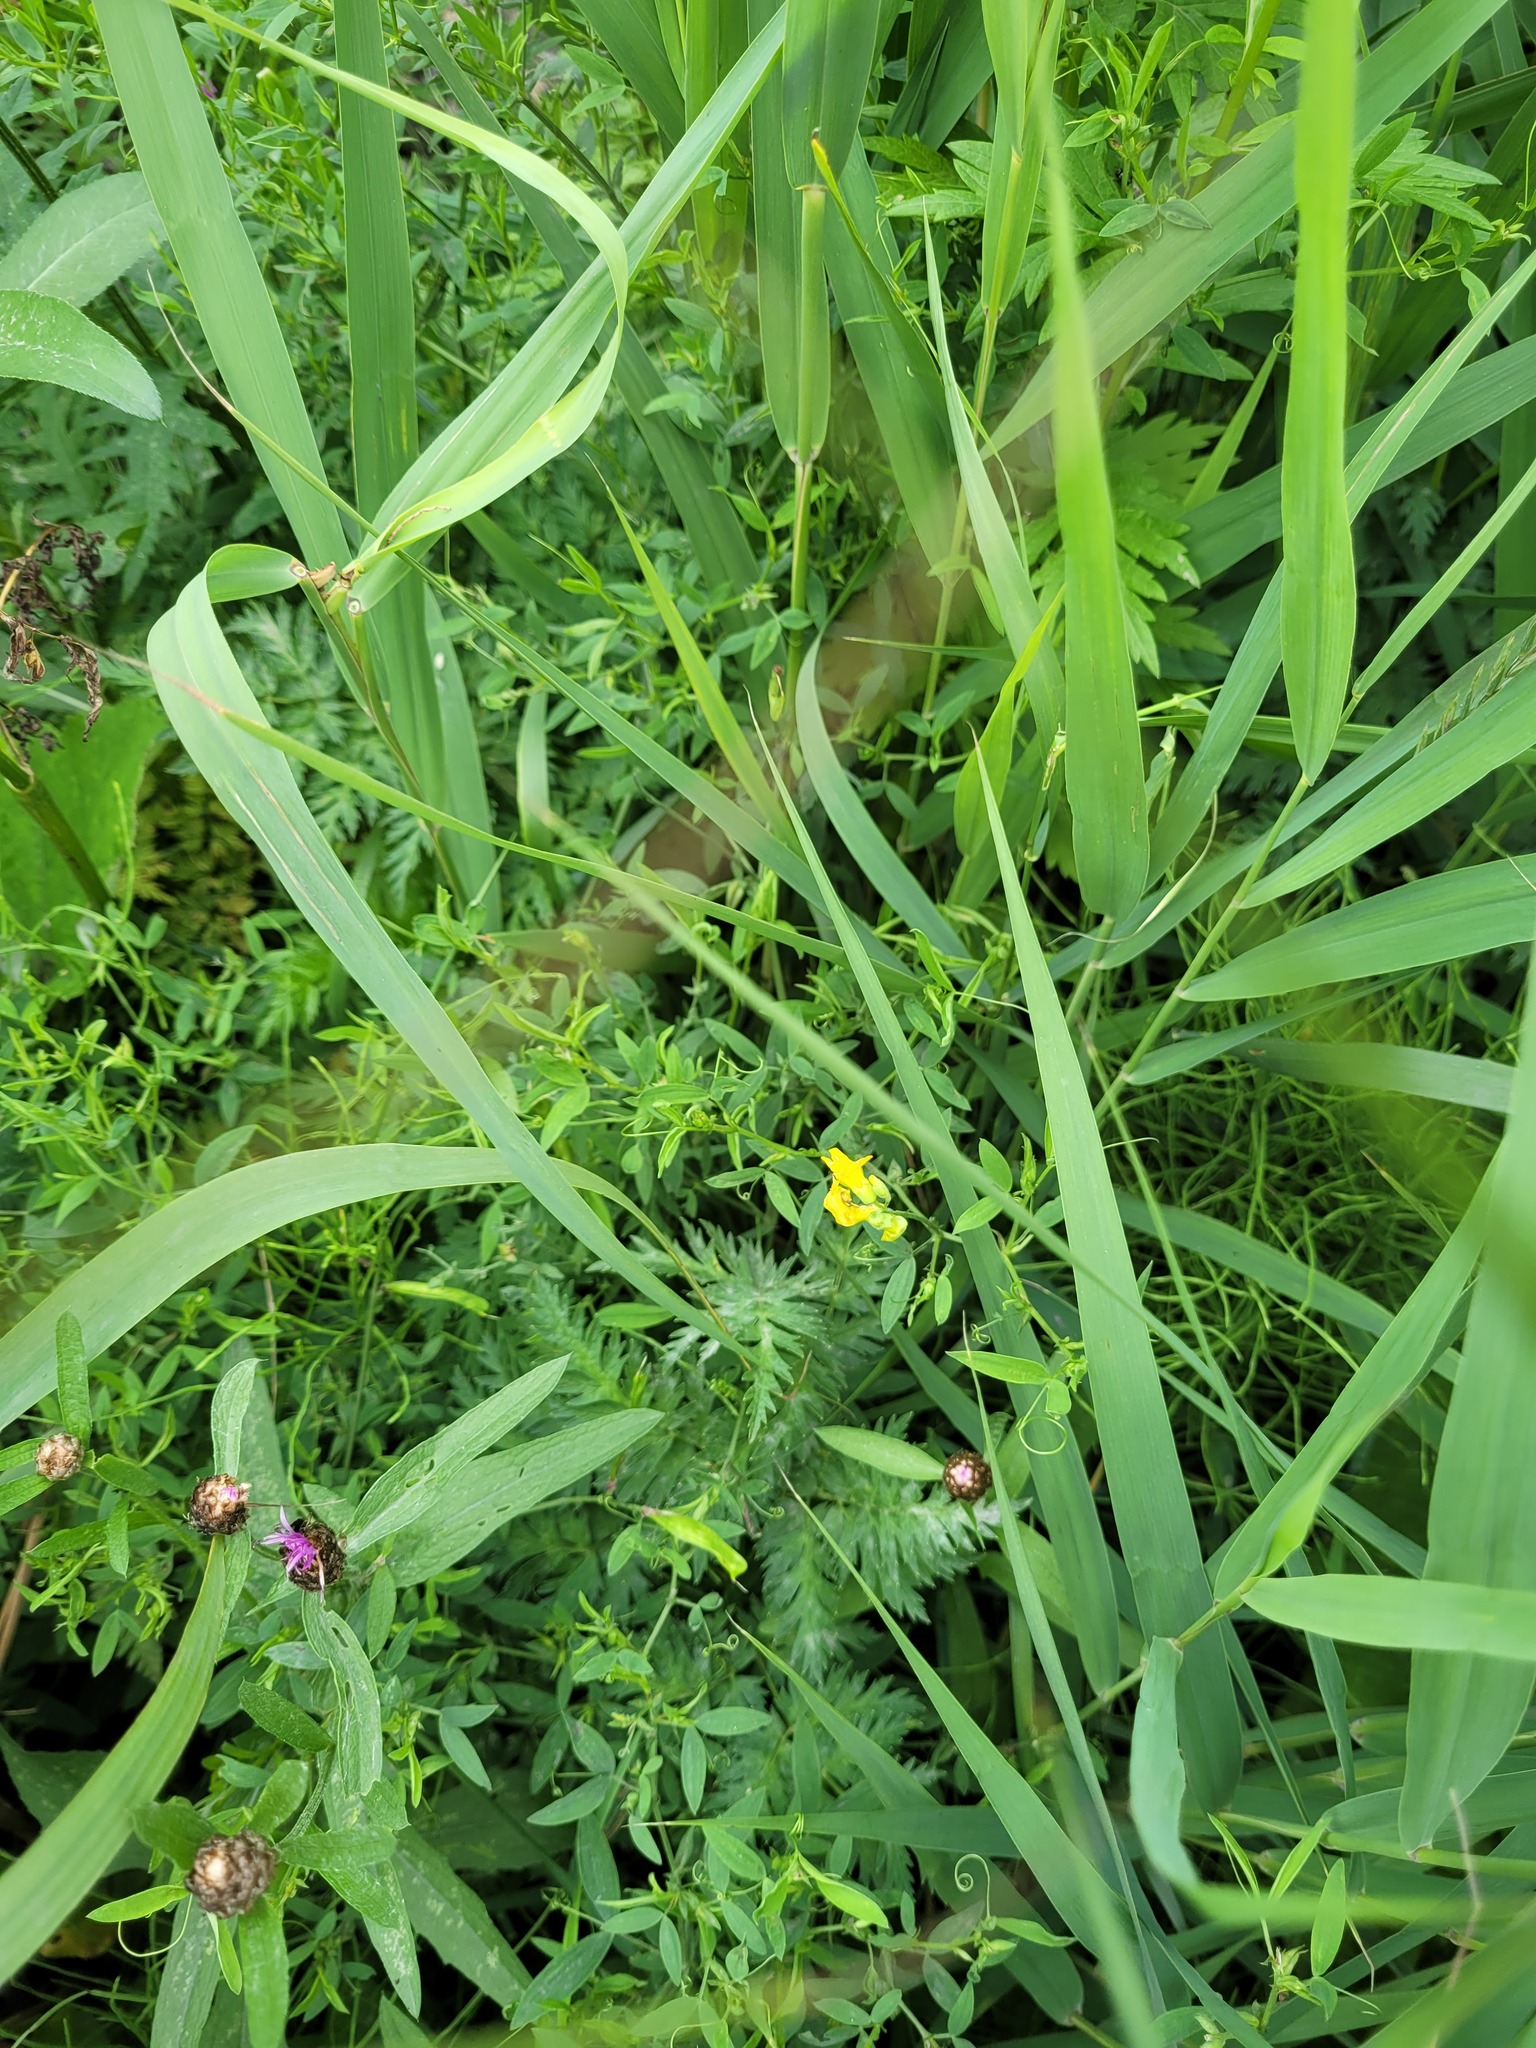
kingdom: Plantae
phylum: Tracheophyta
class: Magnoliopsida
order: Fabales
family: Fabaceae
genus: Lathyrus
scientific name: Lathyrus pratensis
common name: Meadow vetchling
